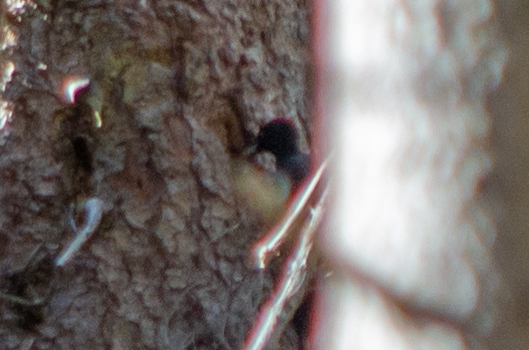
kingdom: Animalia
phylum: Chordata
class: Aves
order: Piciformes
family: Picidae
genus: Dryocopus
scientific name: Dryocopus martius
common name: Black woodpecker
